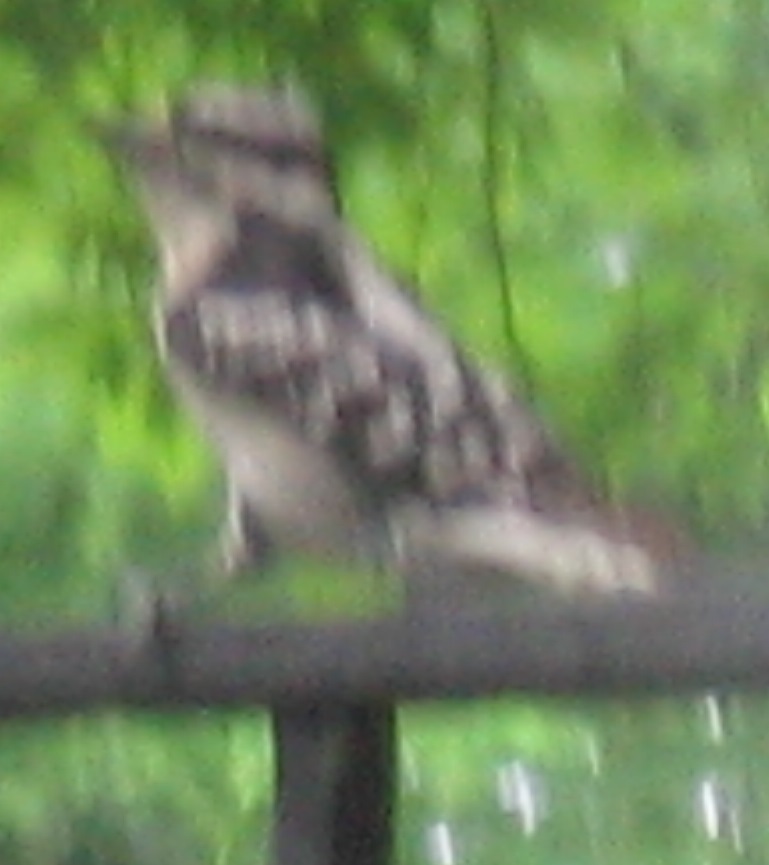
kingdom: Animalia
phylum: Chordata
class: Aves
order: Piciformes
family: Picidae
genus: Dryobates
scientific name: Dryobates pubescens
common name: Downy woodpecker
